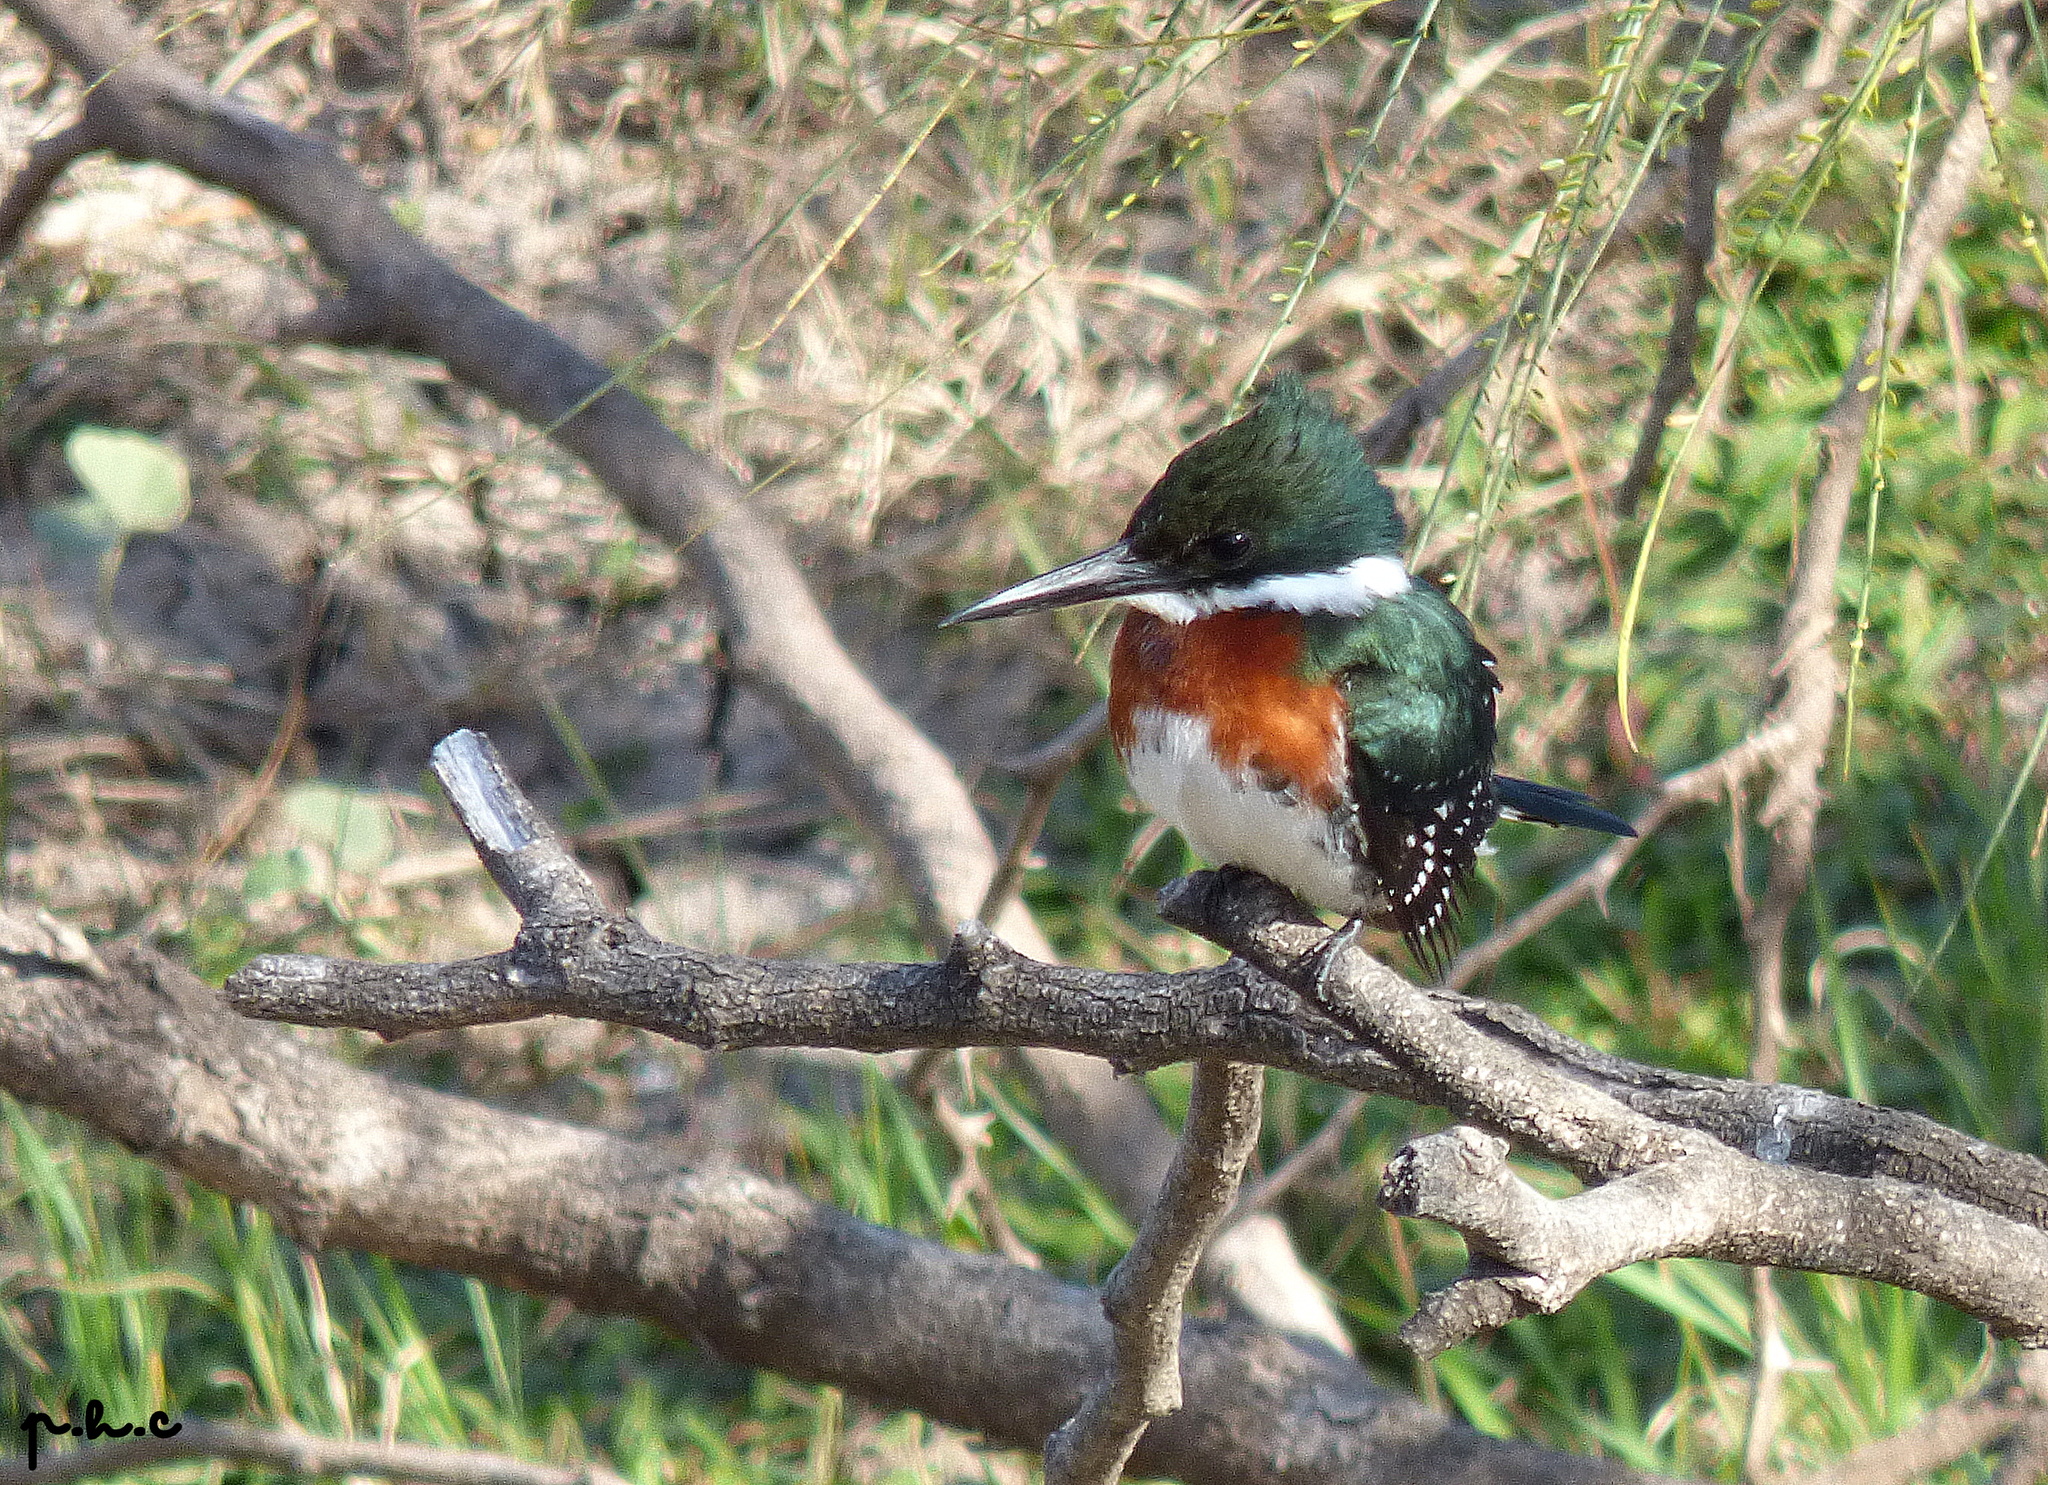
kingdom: Animalia
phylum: Chordata
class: Aves
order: Coraciiformes
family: Alcedinidae
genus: Chloroceryle
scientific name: Chloroceryle americana
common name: Green kingfisher
